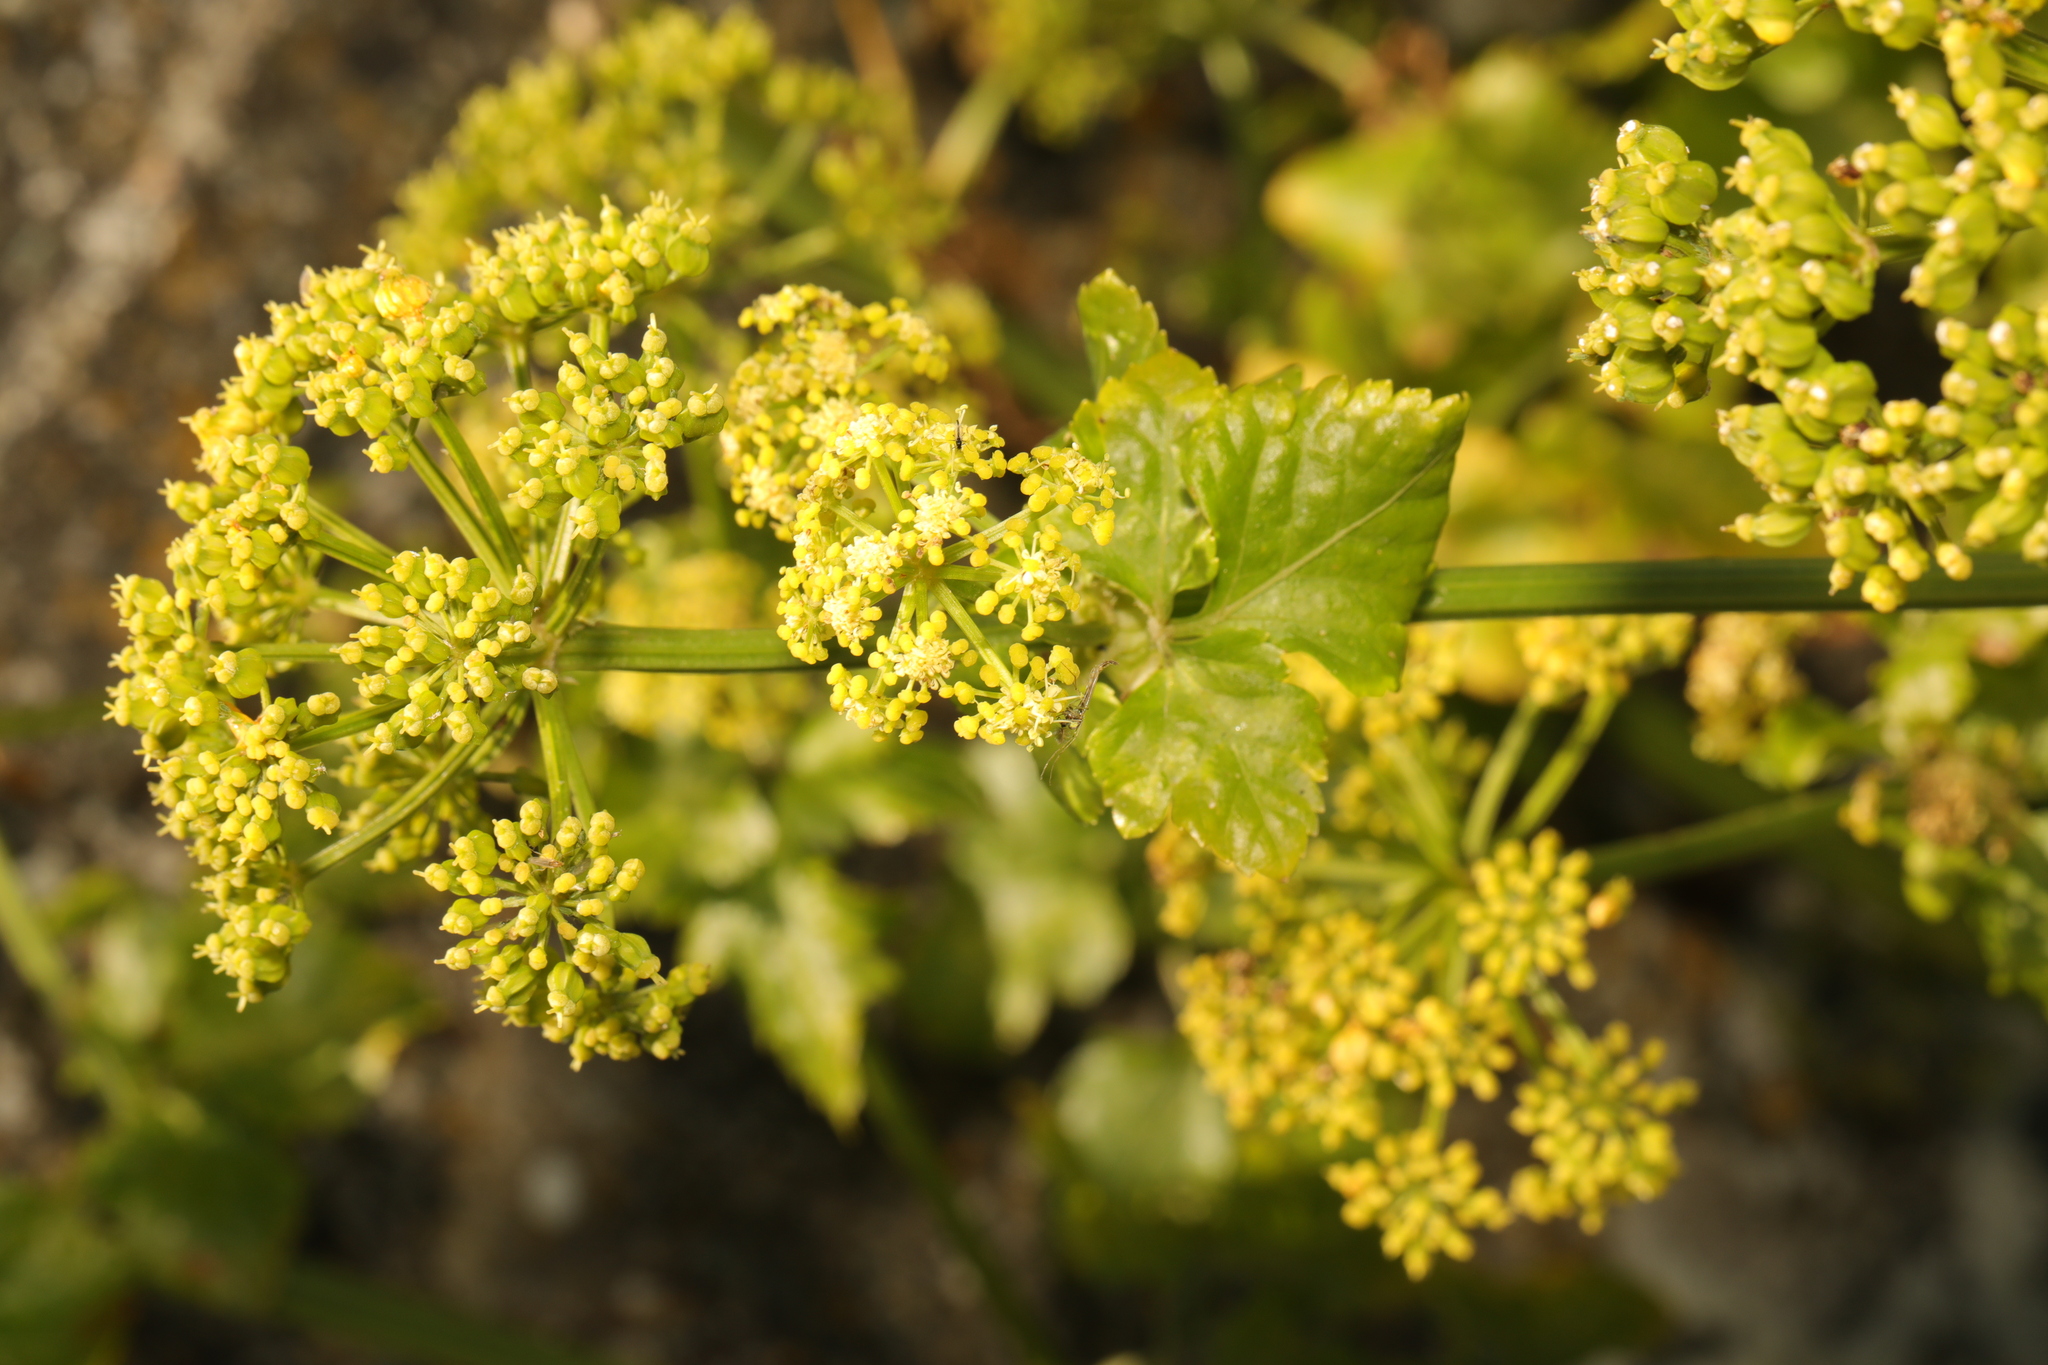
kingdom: Plantae
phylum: Tracheophyta
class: Magnoliopsida
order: Apiales
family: Apiaceae
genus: Smyrnium
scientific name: Smyrnium olusatrum
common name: Alexanders
